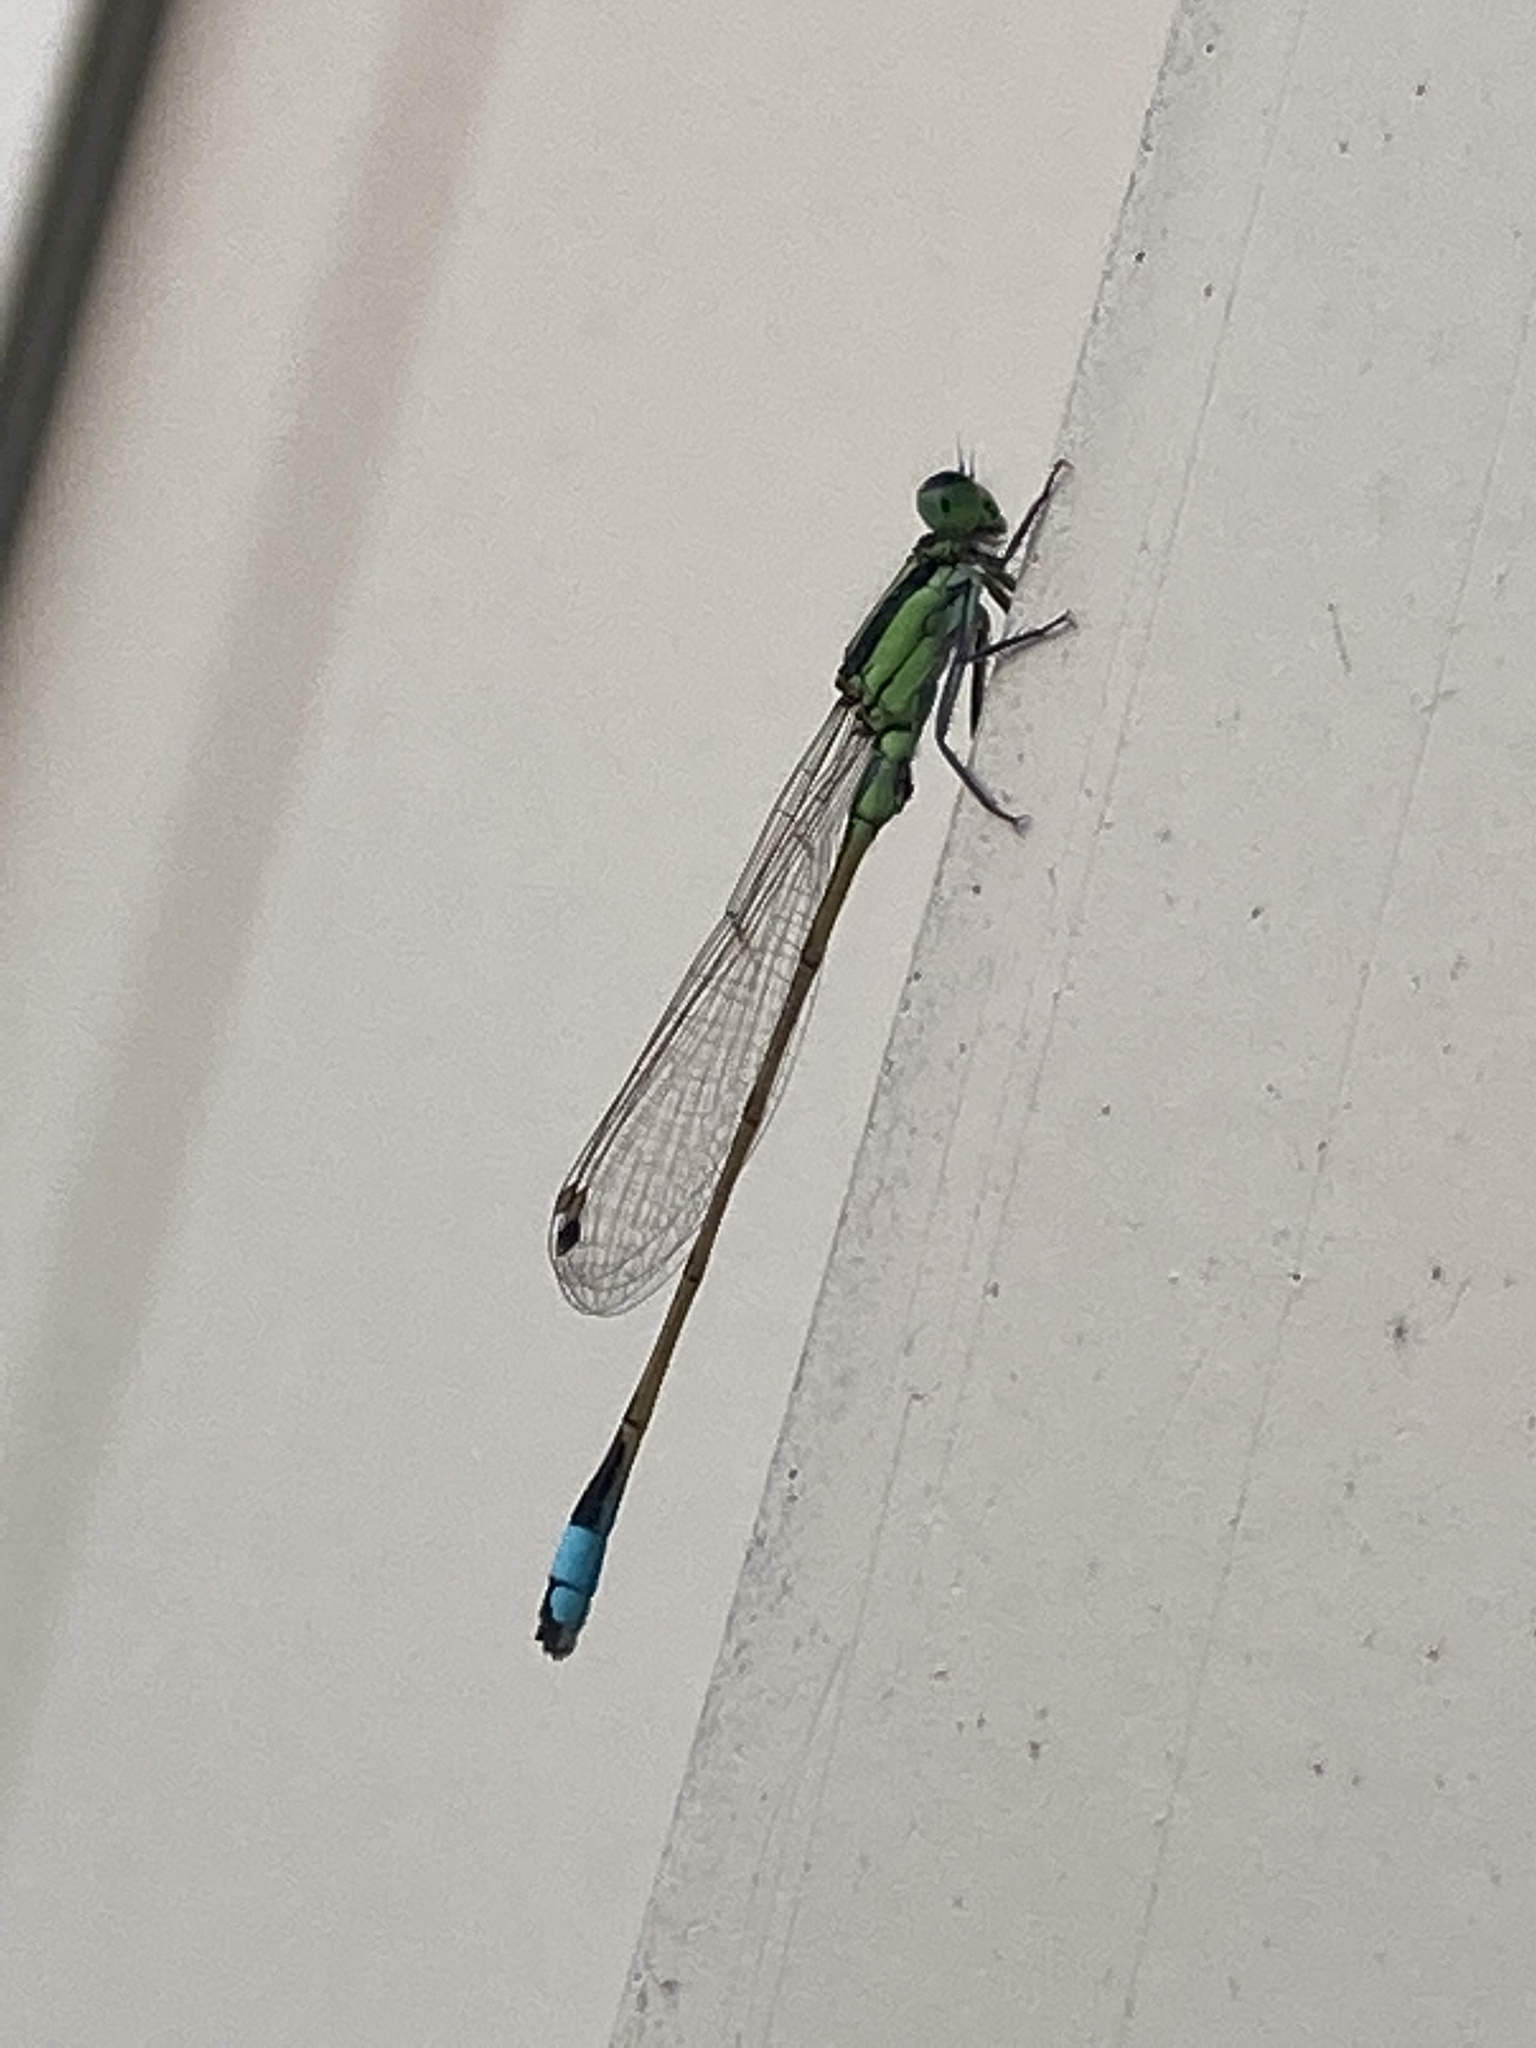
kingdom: Animalia
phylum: Arthropoda
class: Insecta
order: Odonata
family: Coenagrionidae
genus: Ischnura
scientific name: Ischnura ramburii
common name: Rambur's forktail
